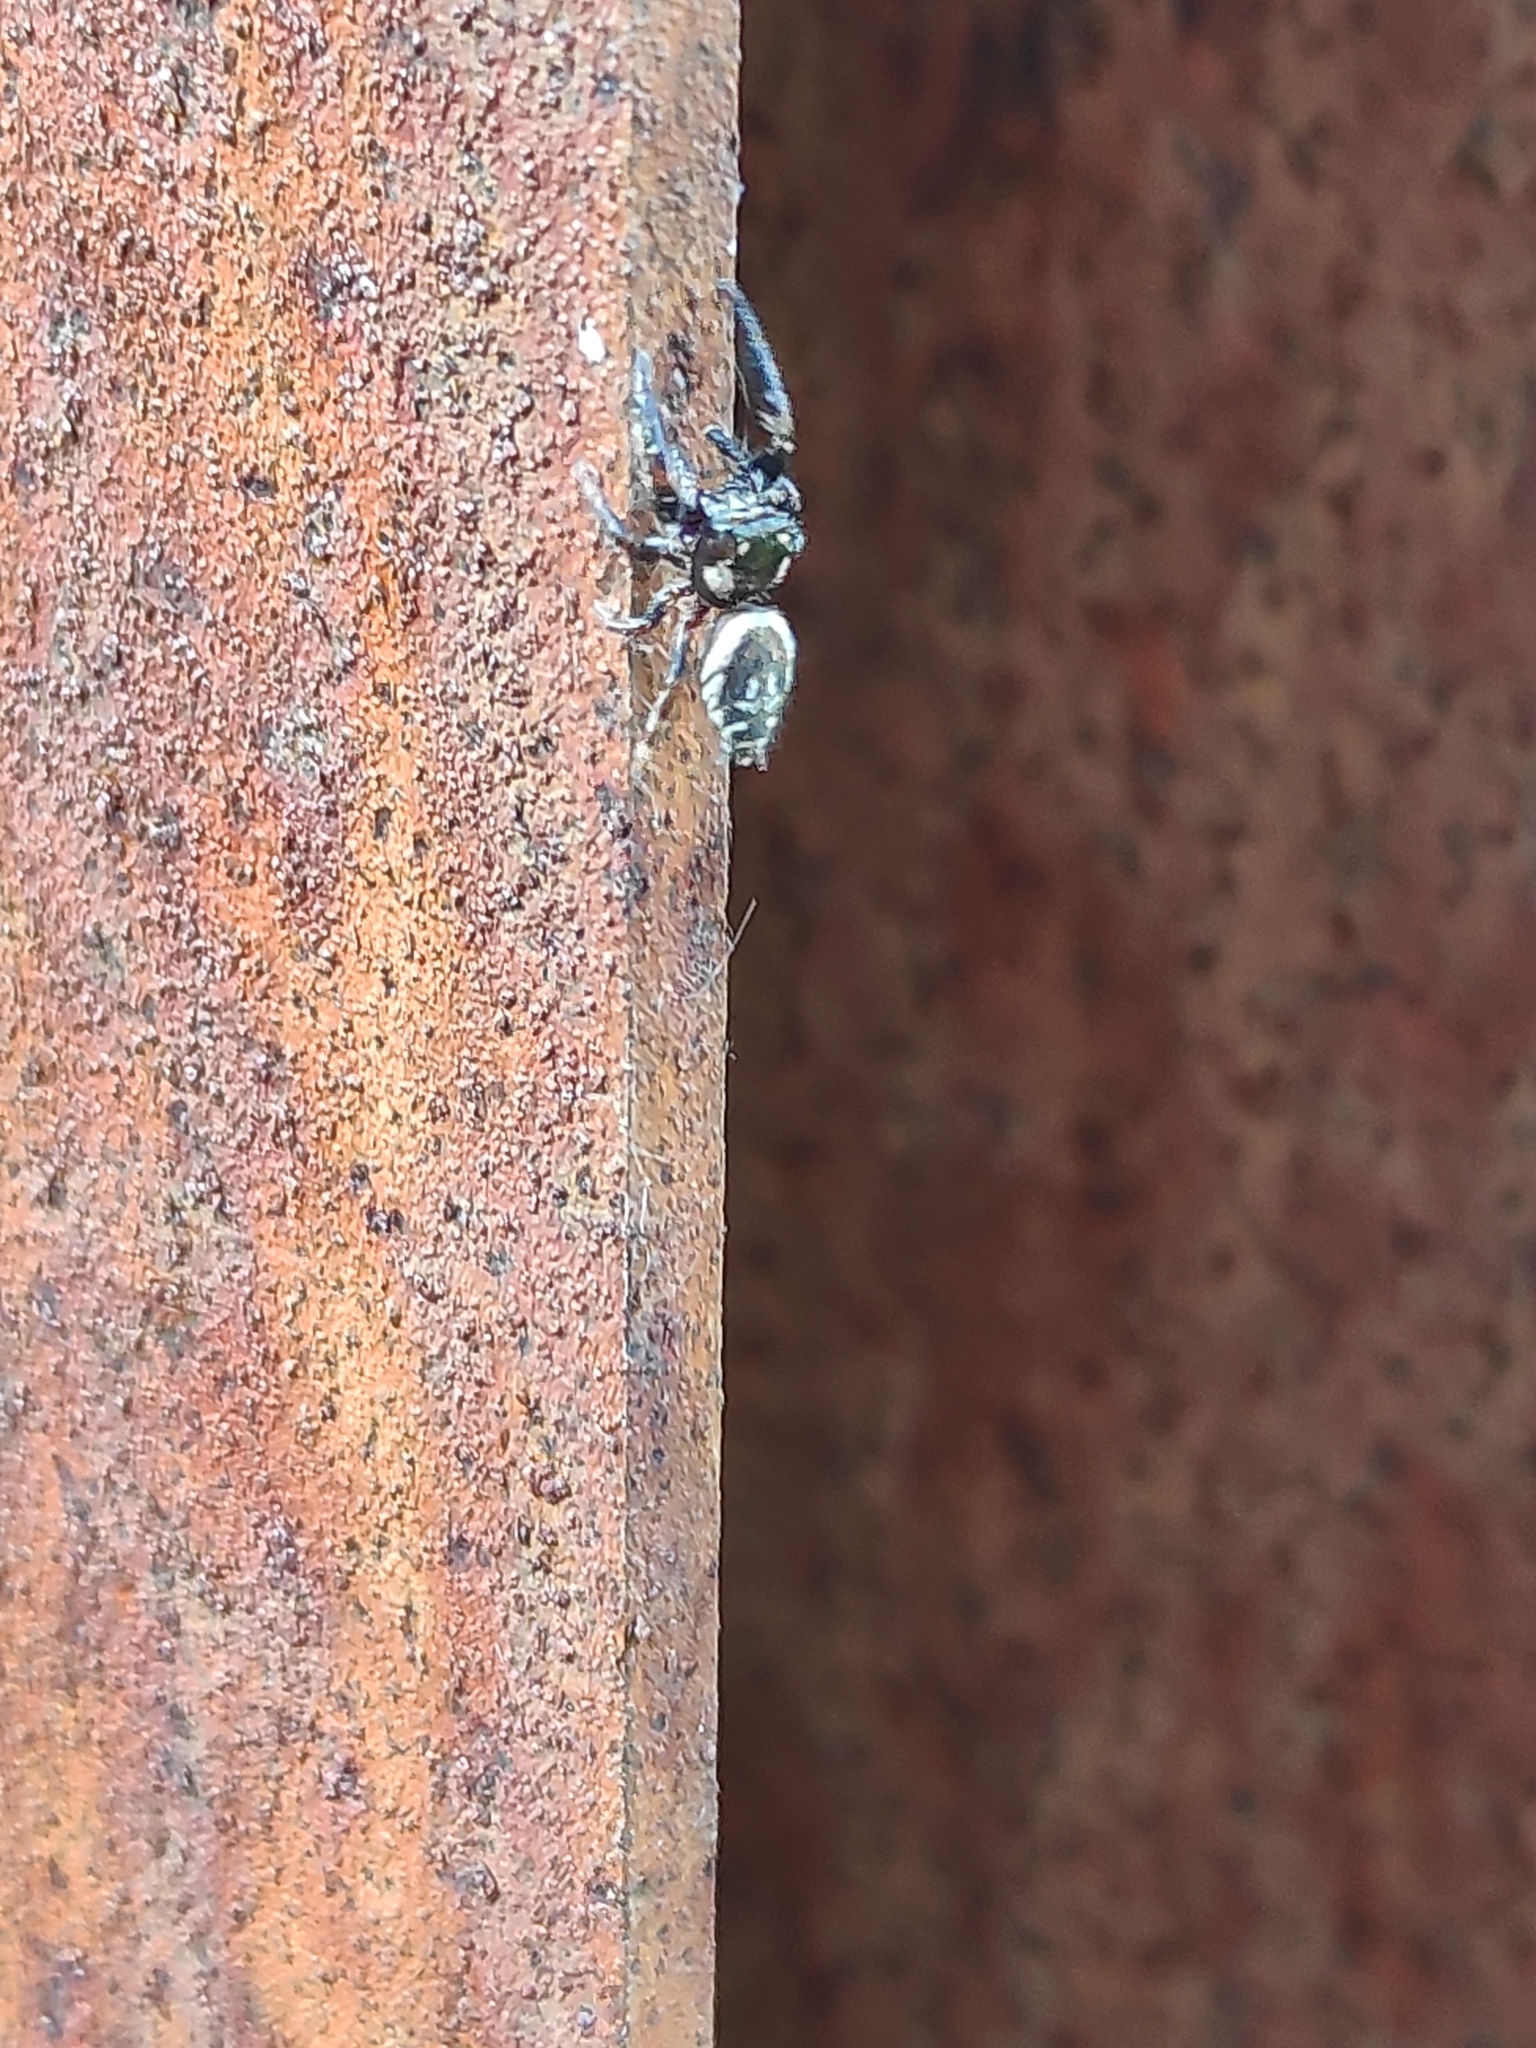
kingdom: Animalia
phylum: Arthropoda
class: Arachnida
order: Araneae
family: Salticidae
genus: Macaroeris
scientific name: Macaroeris nidicolens
